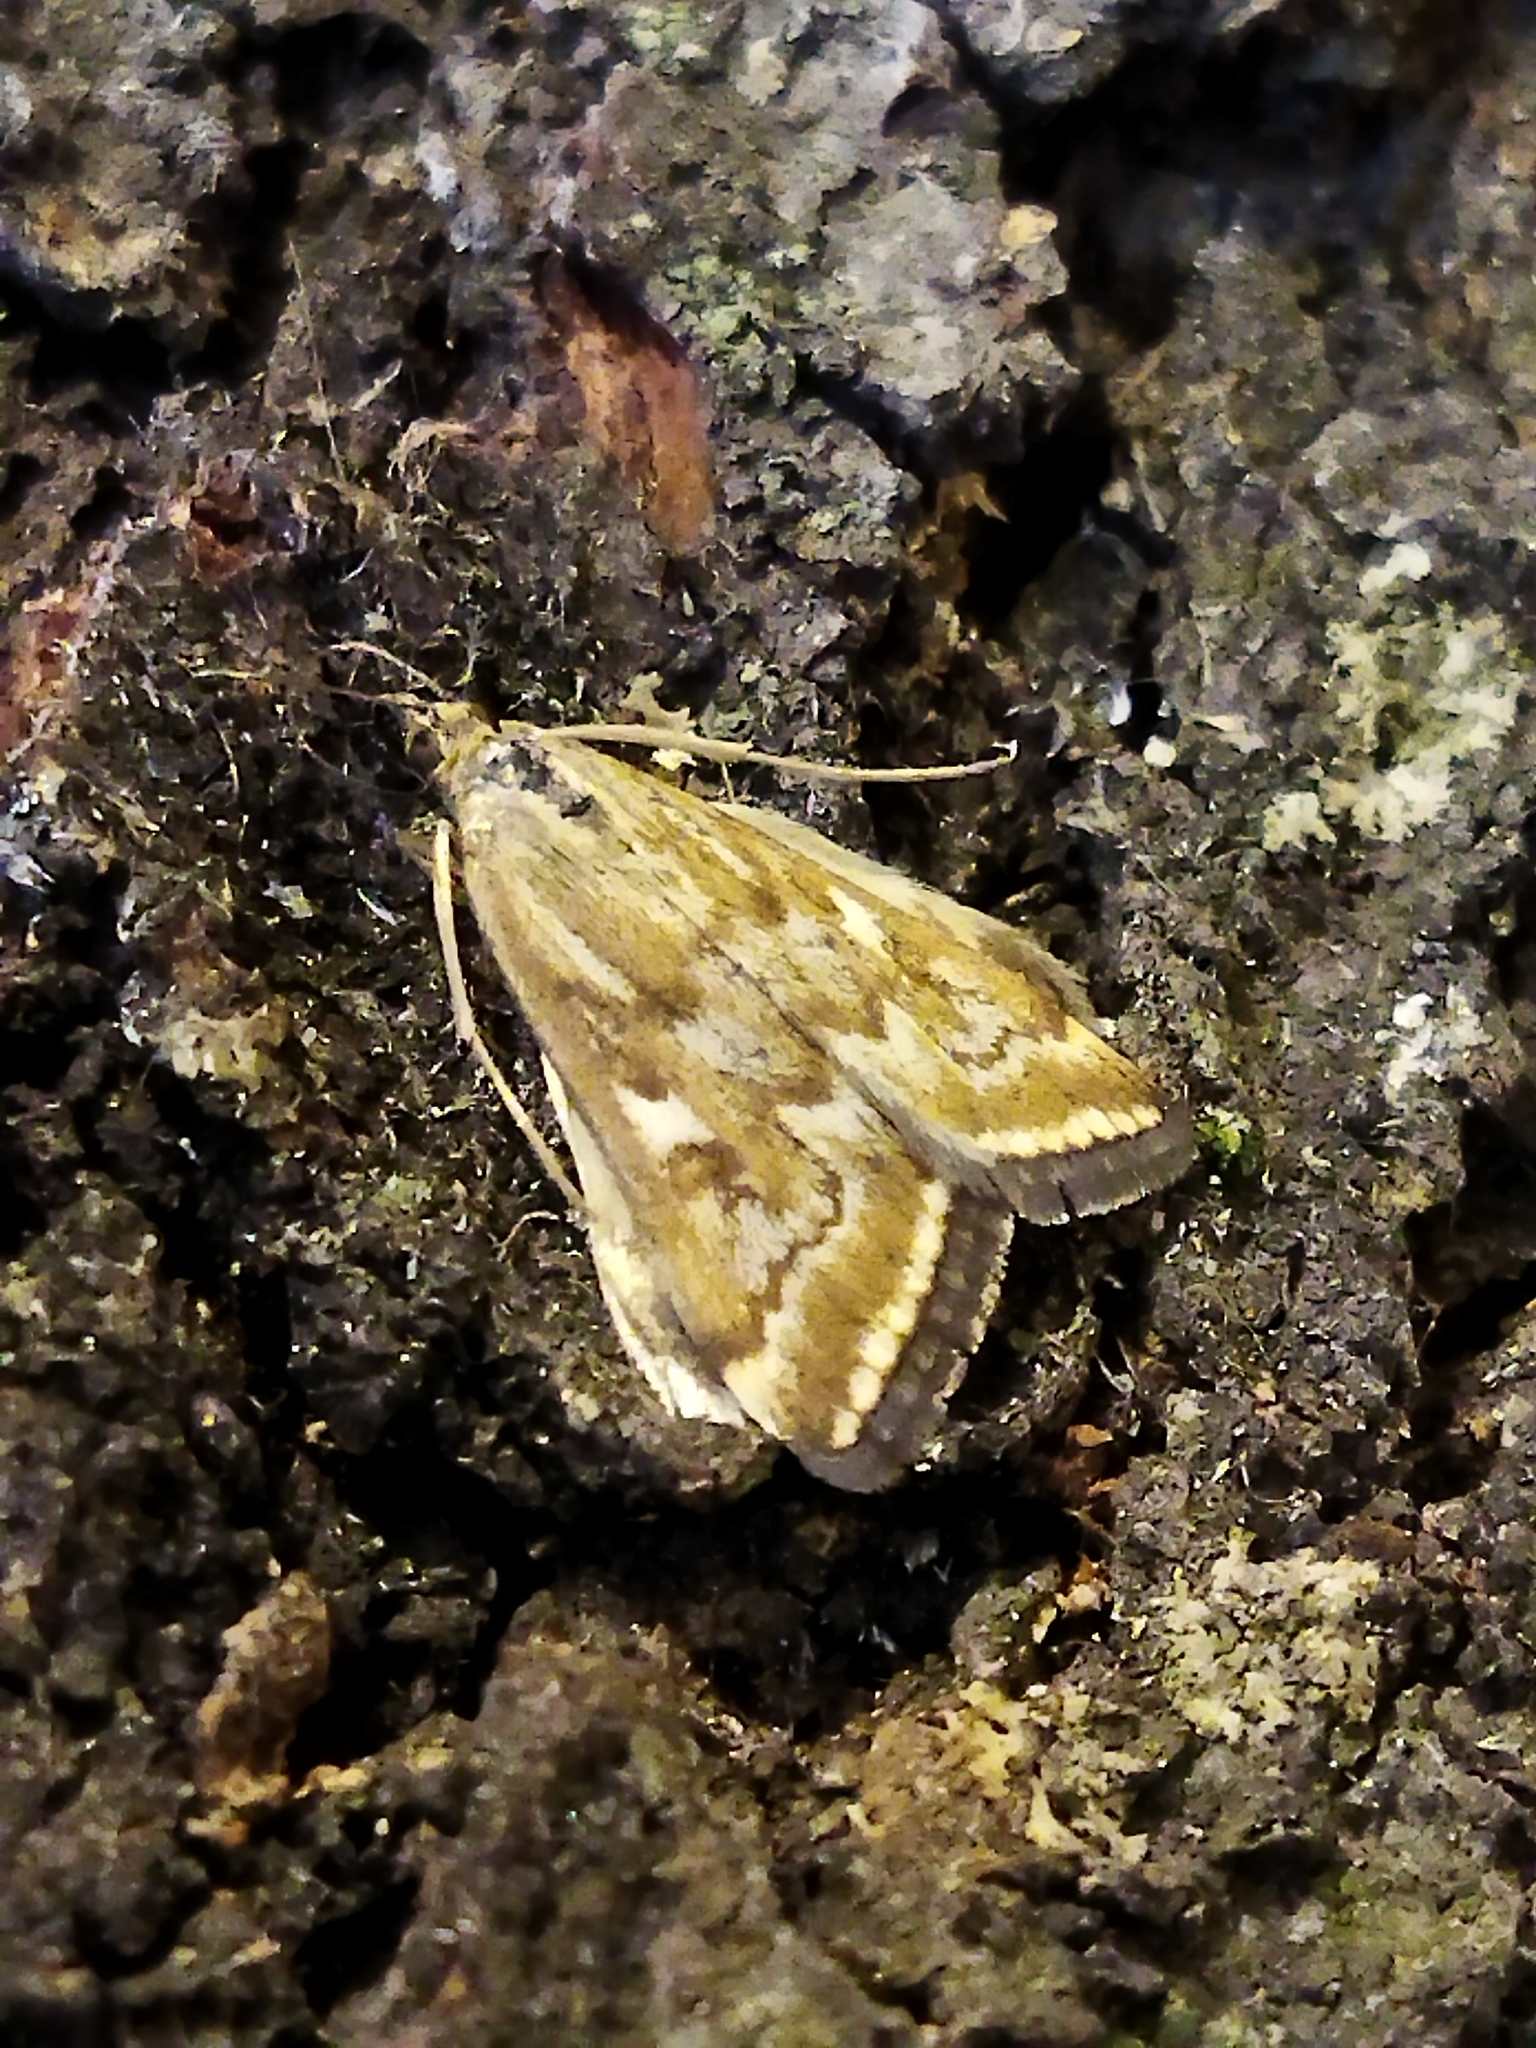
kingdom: Animalia
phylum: Arthropoda
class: Insecta
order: Lepidoptera
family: Crambidae
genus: Loxostege
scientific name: Loxostege sticticalis
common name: Crambid moth
